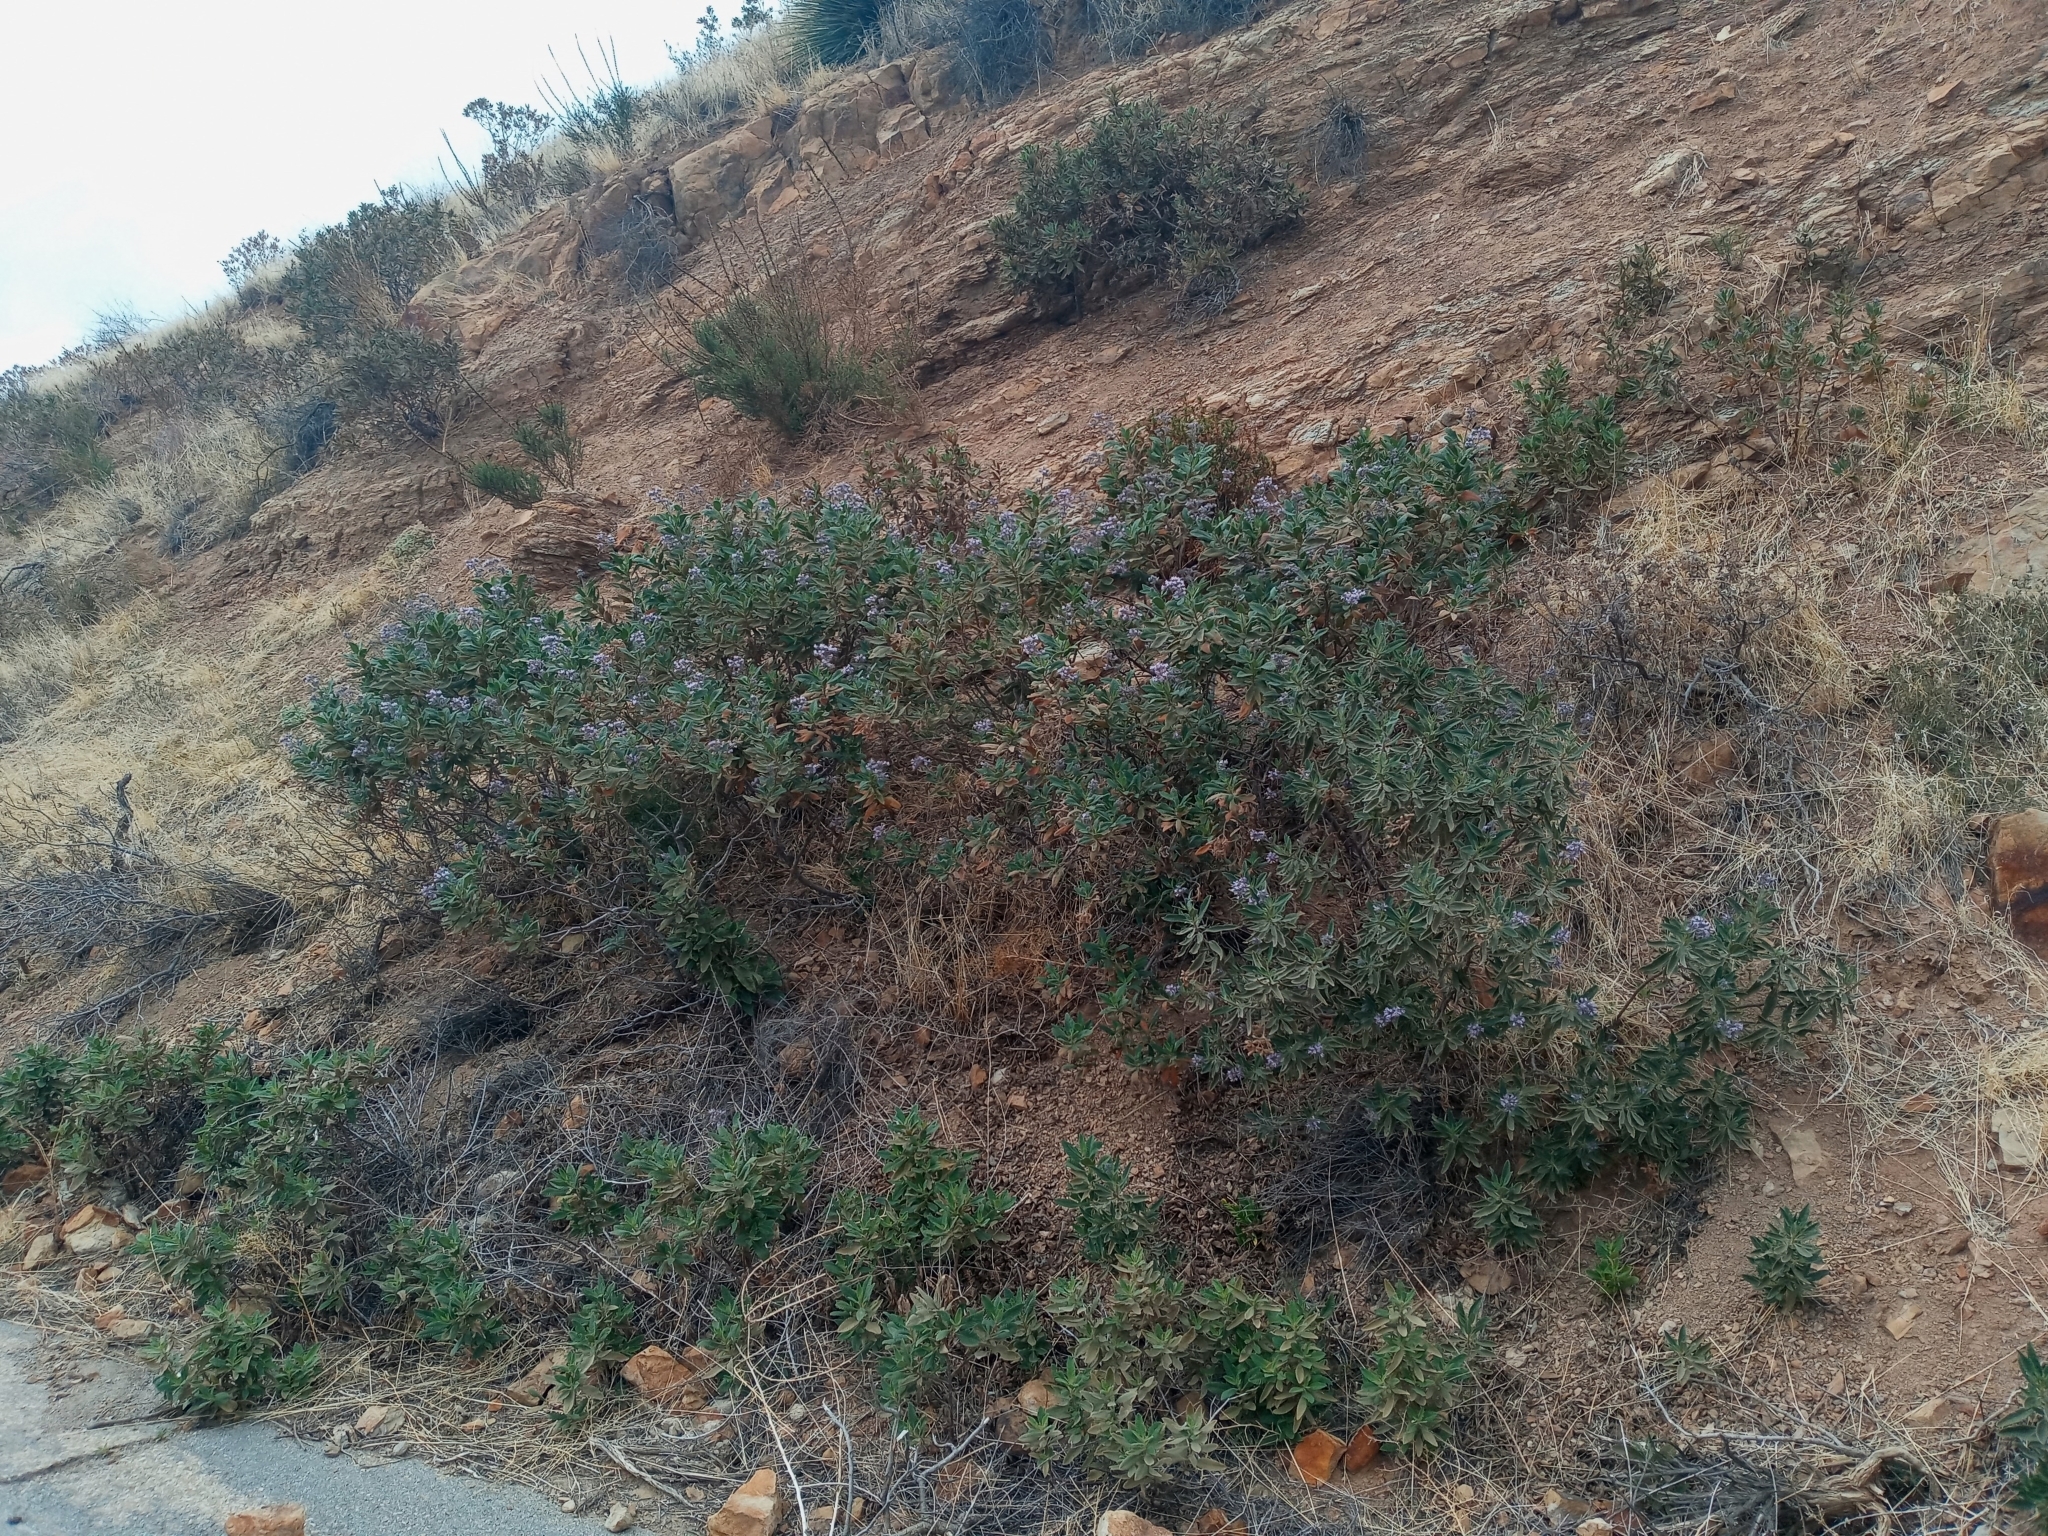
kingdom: Plantae
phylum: Tracheophyta
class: Magnoliopsida
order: Boraginales
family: Namaceae
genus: Eriodictyon
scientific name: Eriodictyon crassifolium
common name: Thick-leaf yerba-santa
